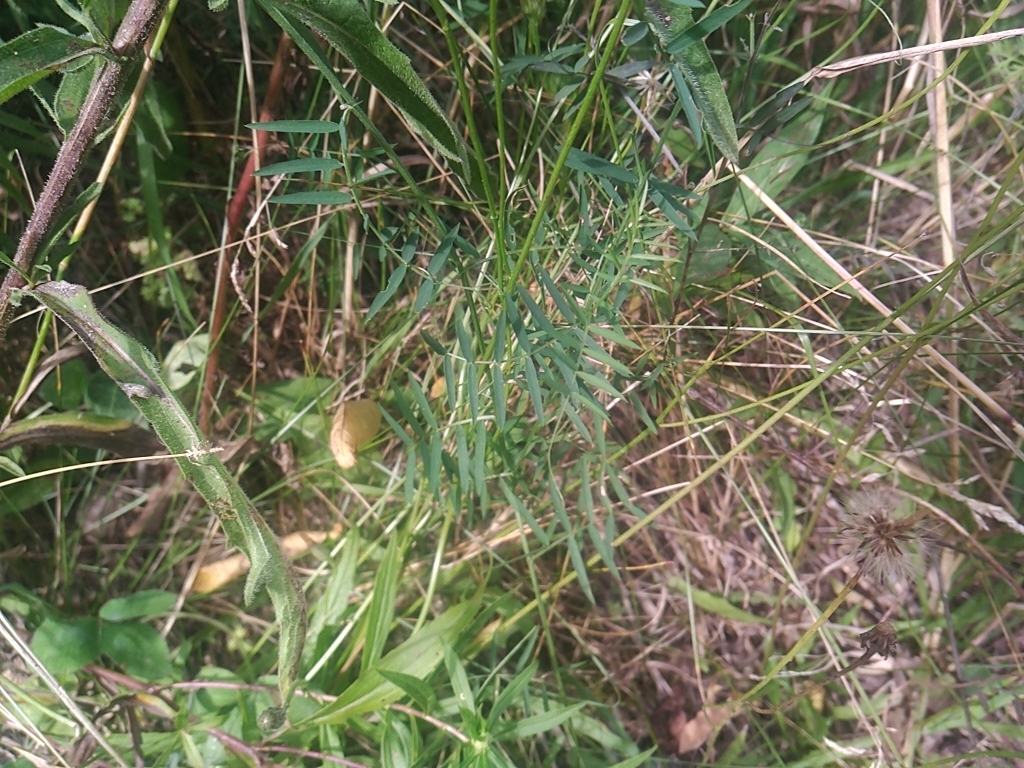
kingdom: Plantae
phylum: Tracheophyta
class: Magnoliopsida
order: Fabales
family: Fabaceae
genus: Vicia
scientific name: Vicia cracca
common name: Bird vetch
